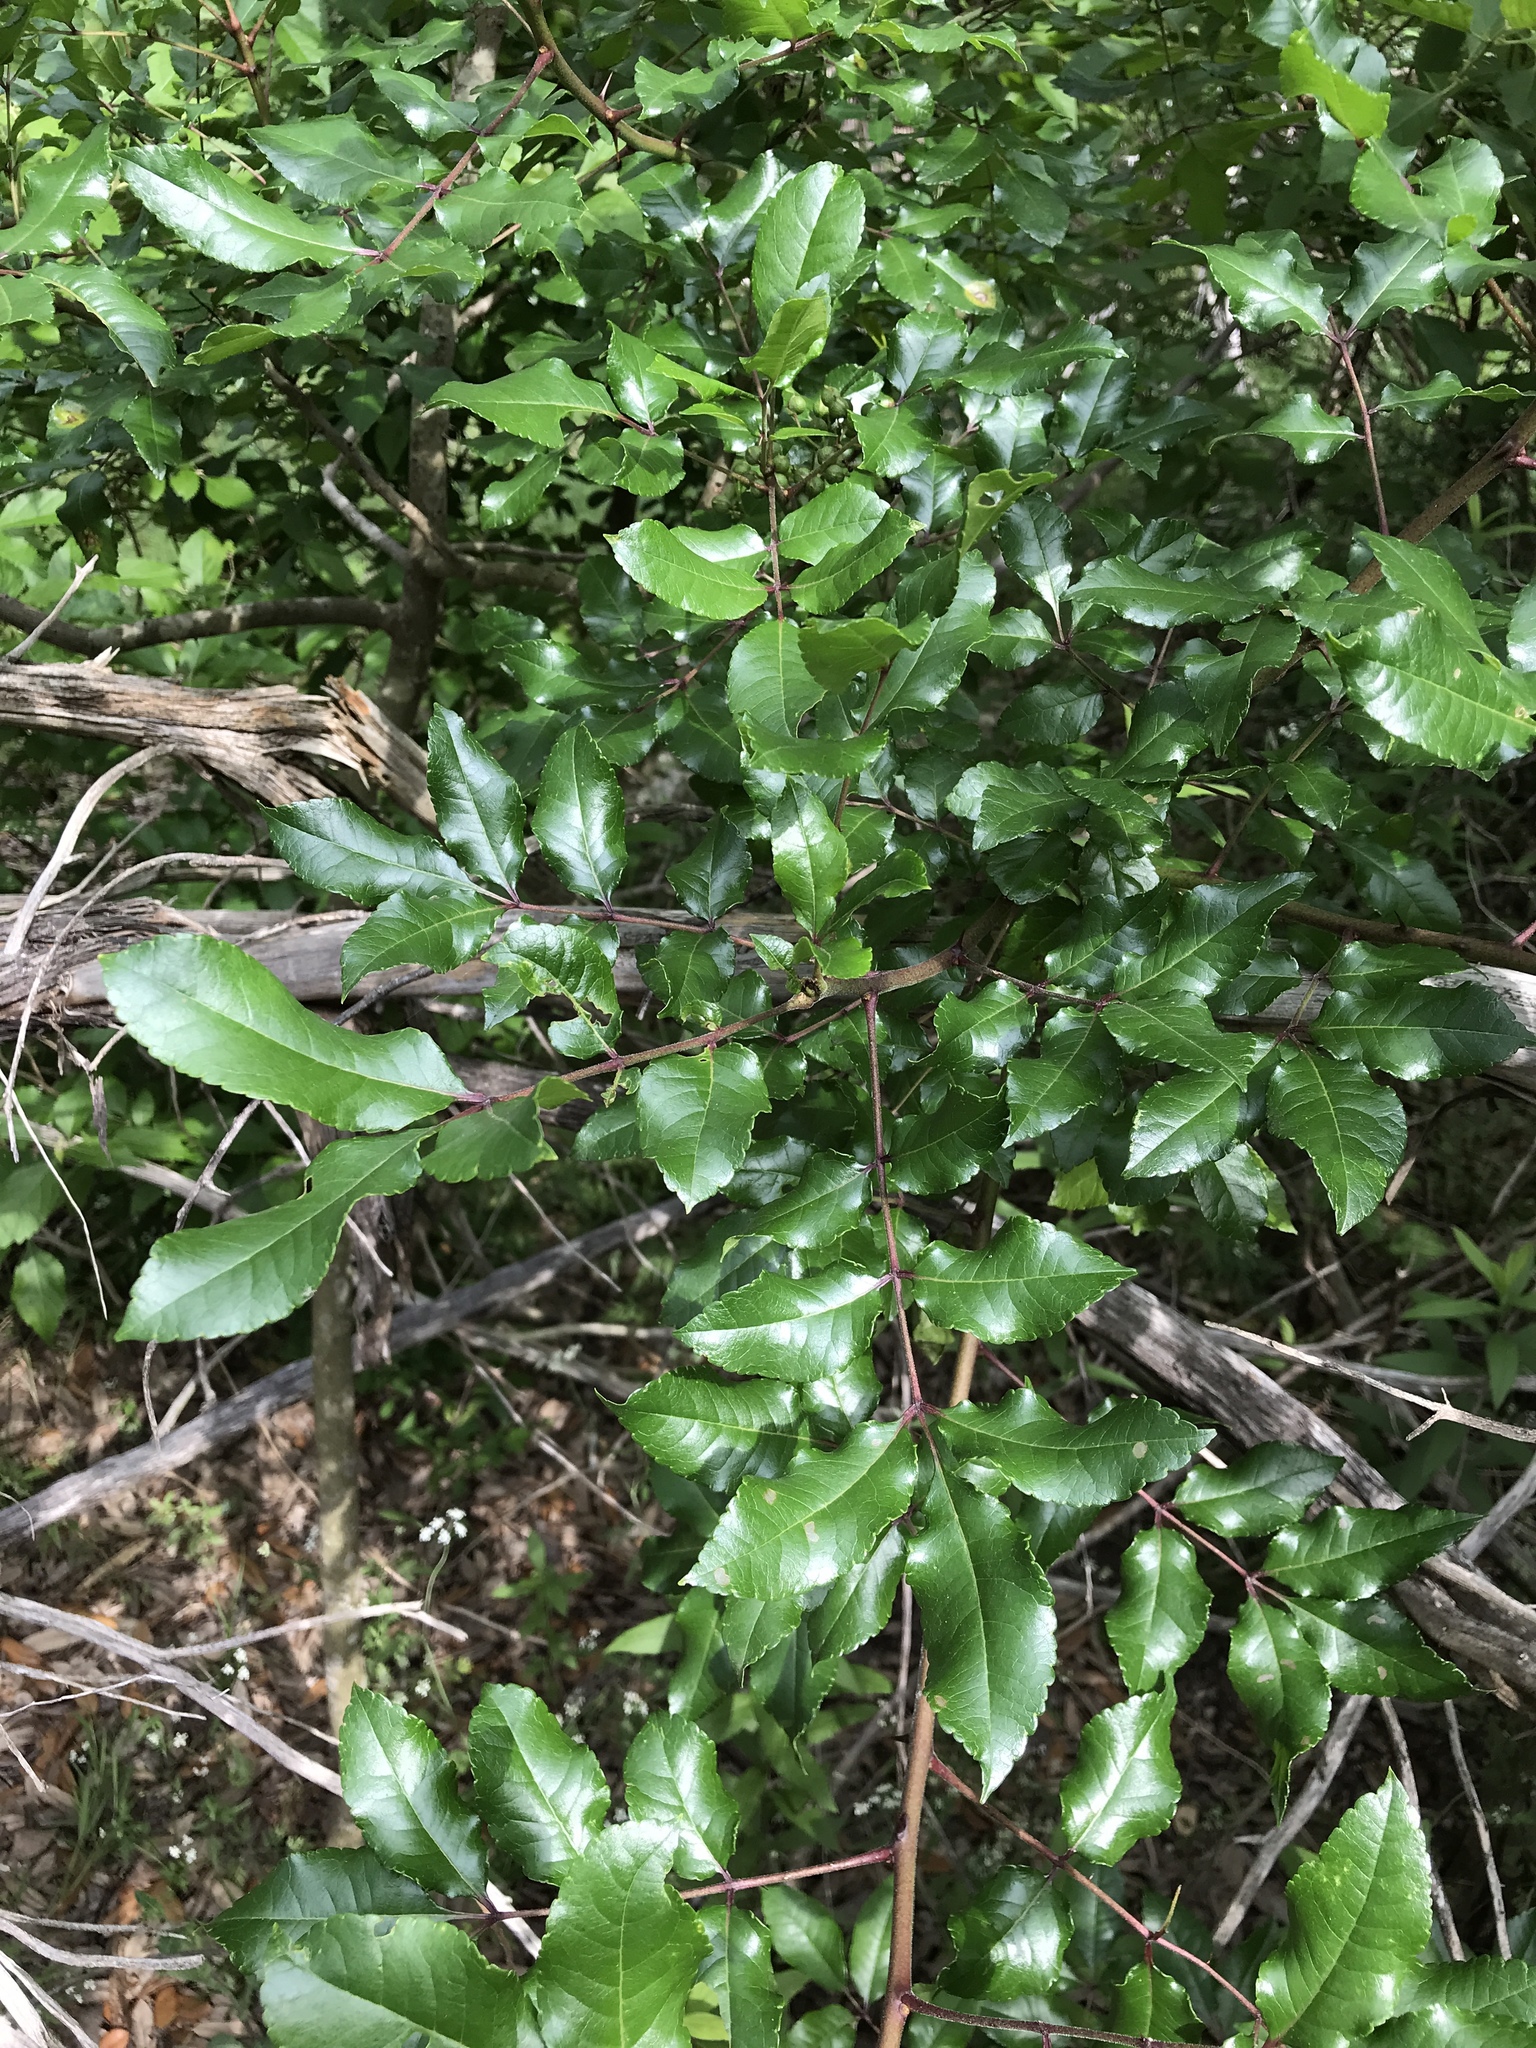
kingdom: Plantae
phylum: Tracheophyta
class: Magnoliopsida
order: Sapindales
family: Rutaceae
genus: Zanthoxylum
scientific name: Zanthoxylum clava-herculis
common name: Hercules'-club
